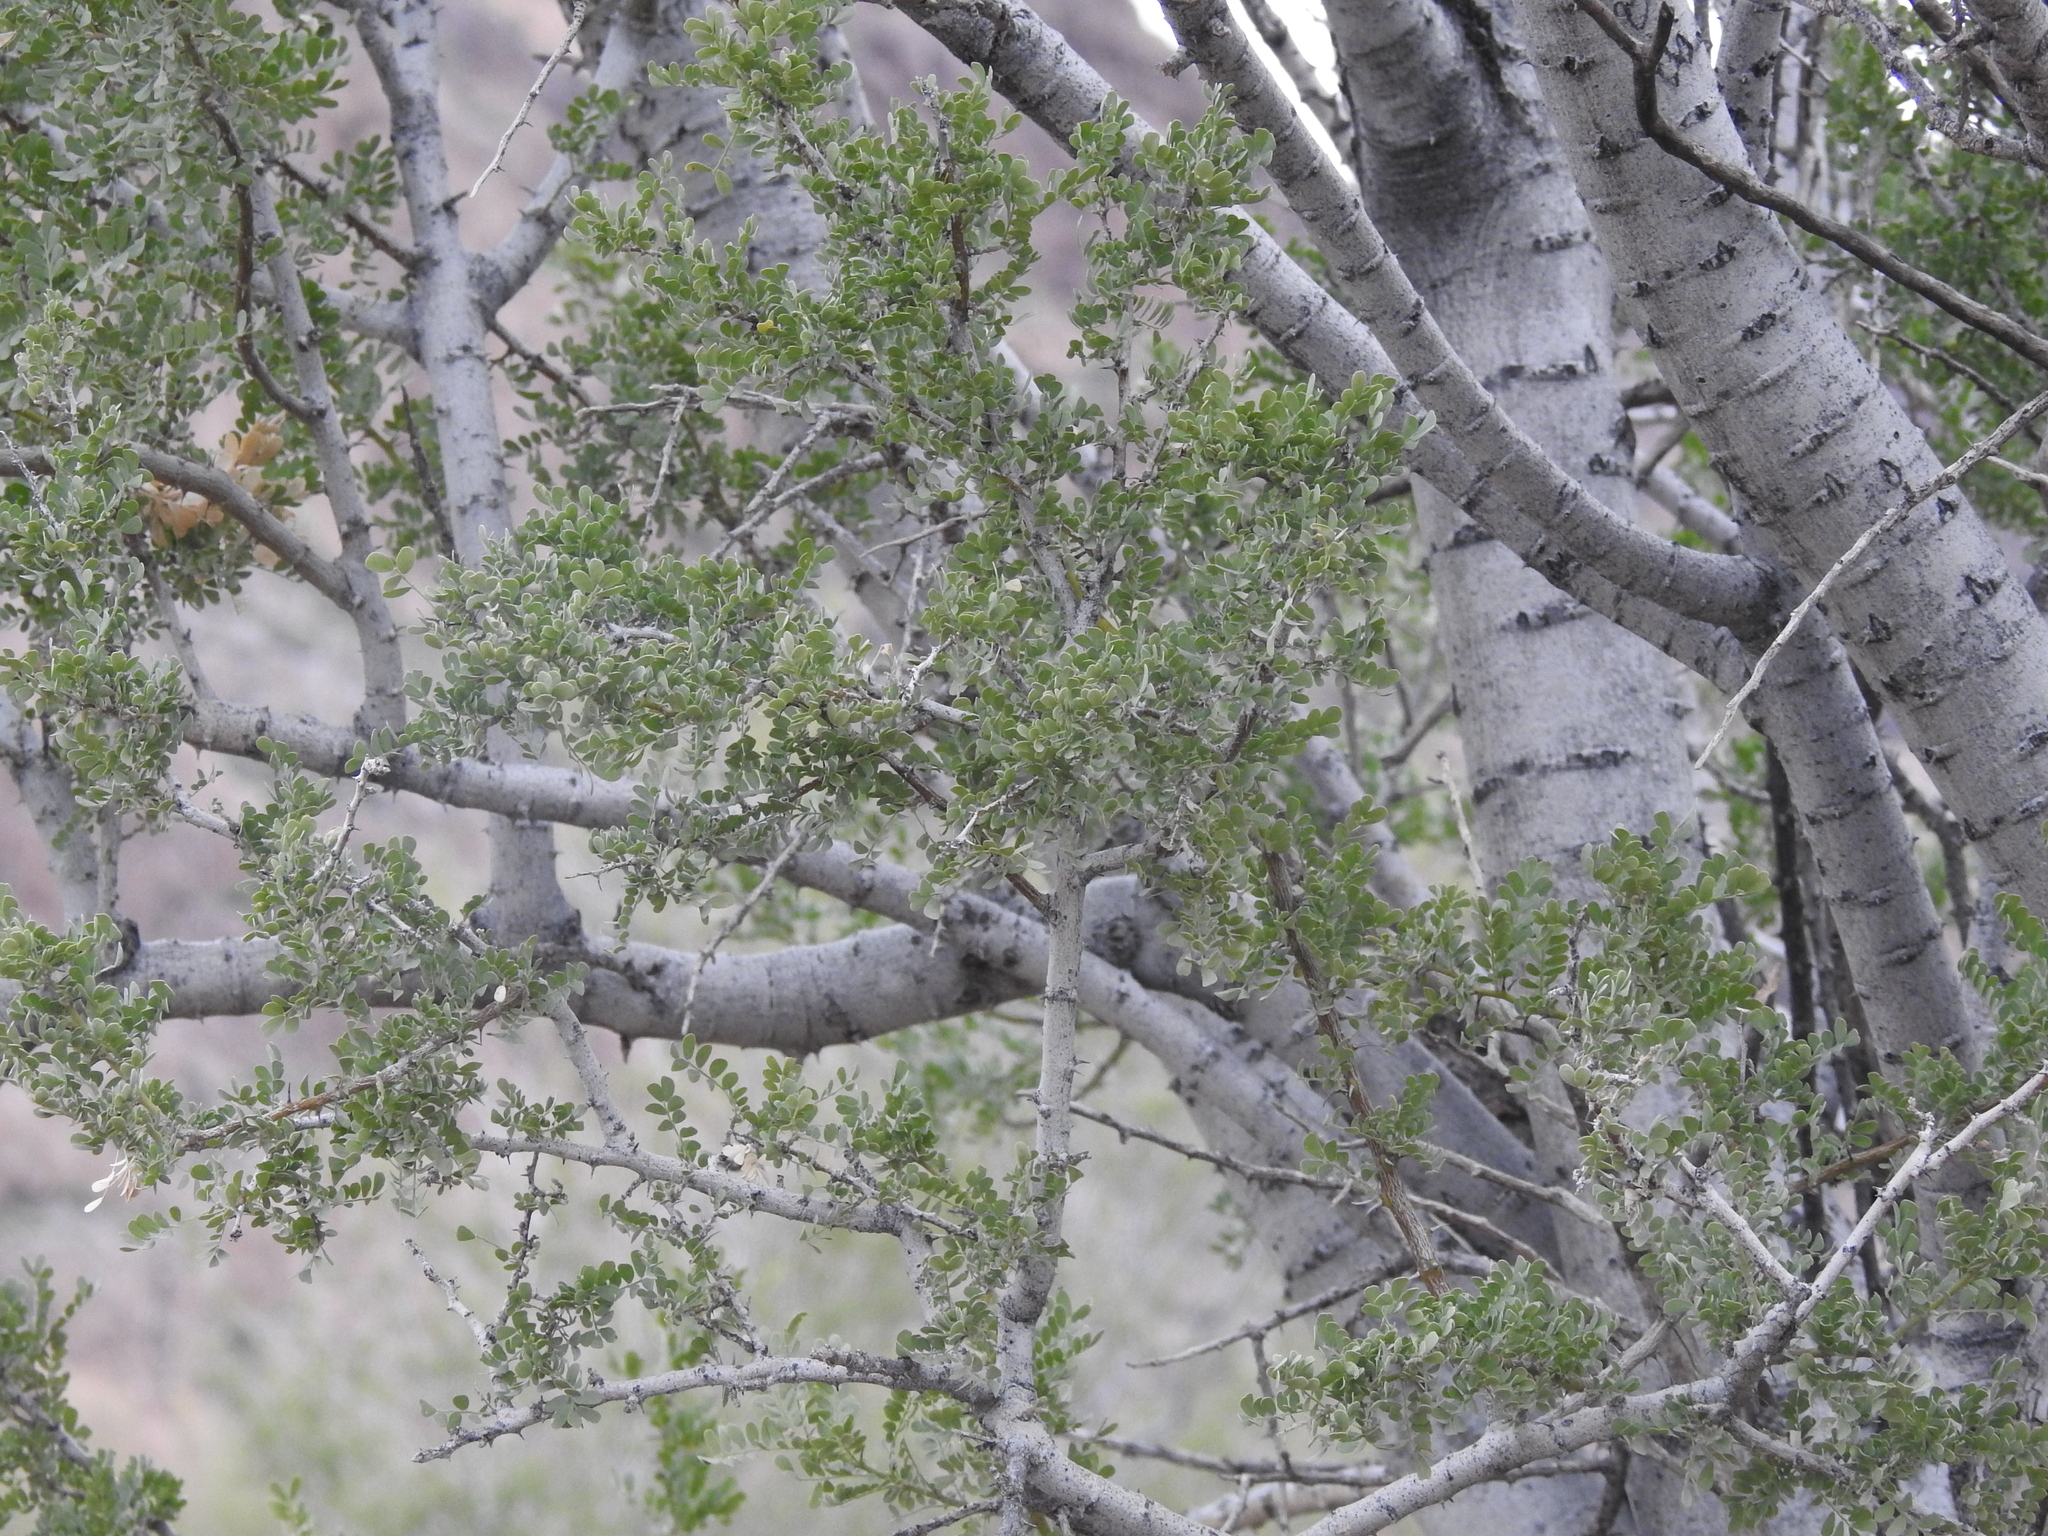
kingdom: Plantae
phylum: Tracheophyta
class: Magnoliopsida
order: Fabales
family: Fabaceae
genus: Olneya
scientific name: Olneya tesota
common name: Desert ironwood
